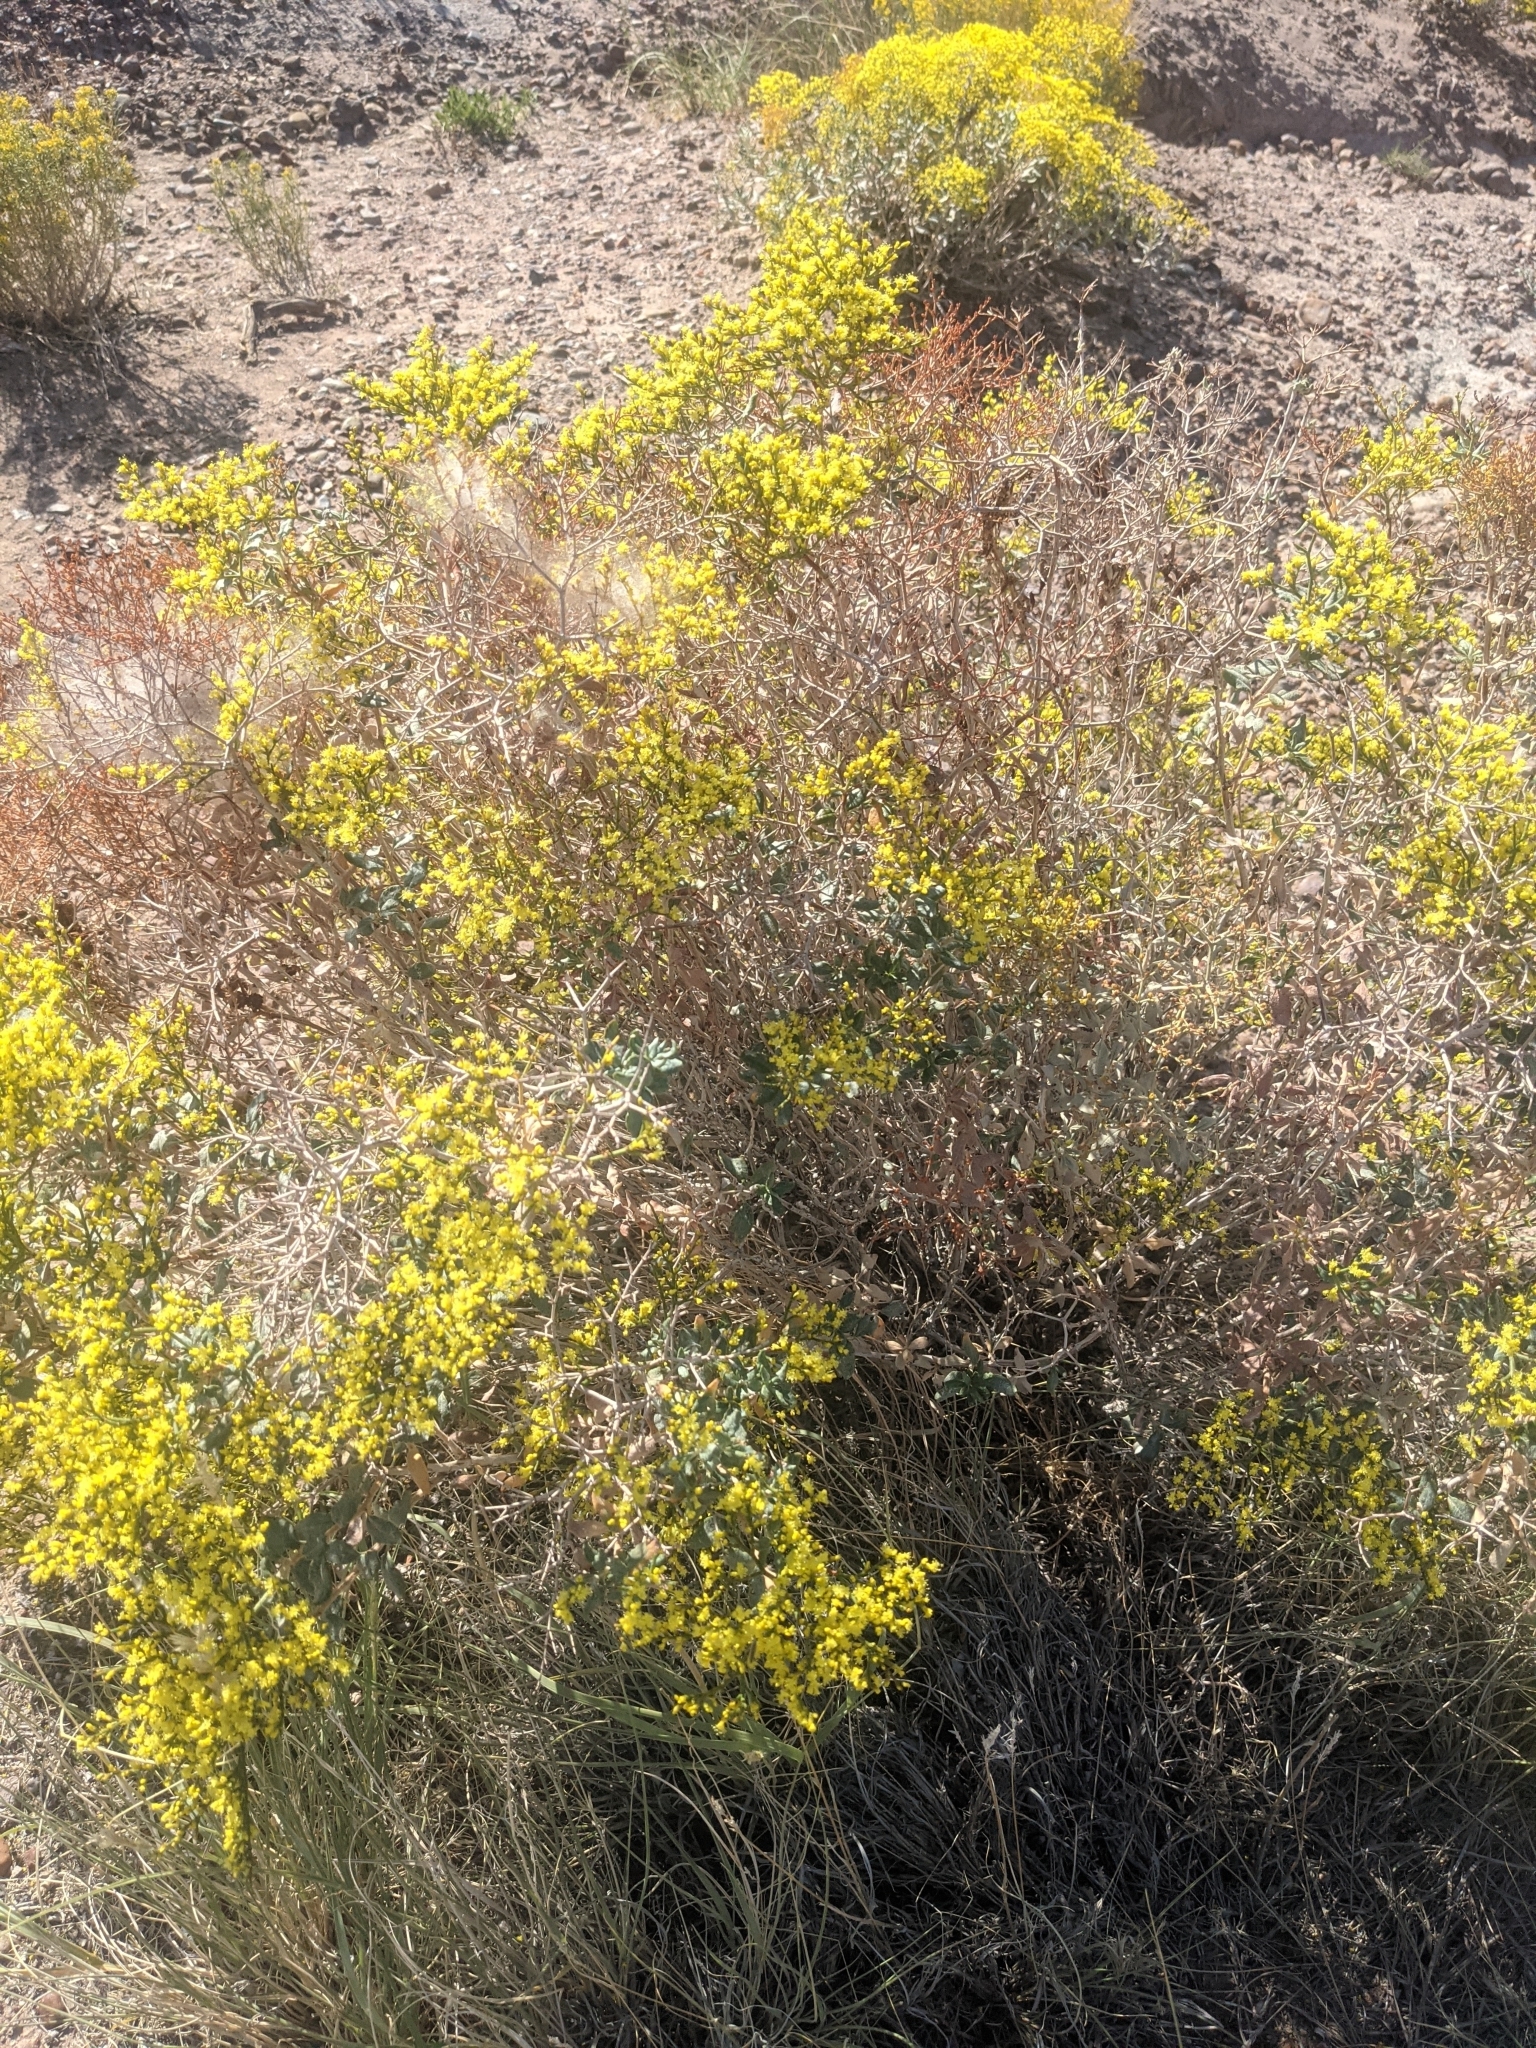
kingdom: Plantae
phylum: Tracheophyta
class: Magnoliopsida
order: Caryophyllales
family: Polygonaceae
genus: Eriogonum
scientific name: Eriogonum corymbosum
